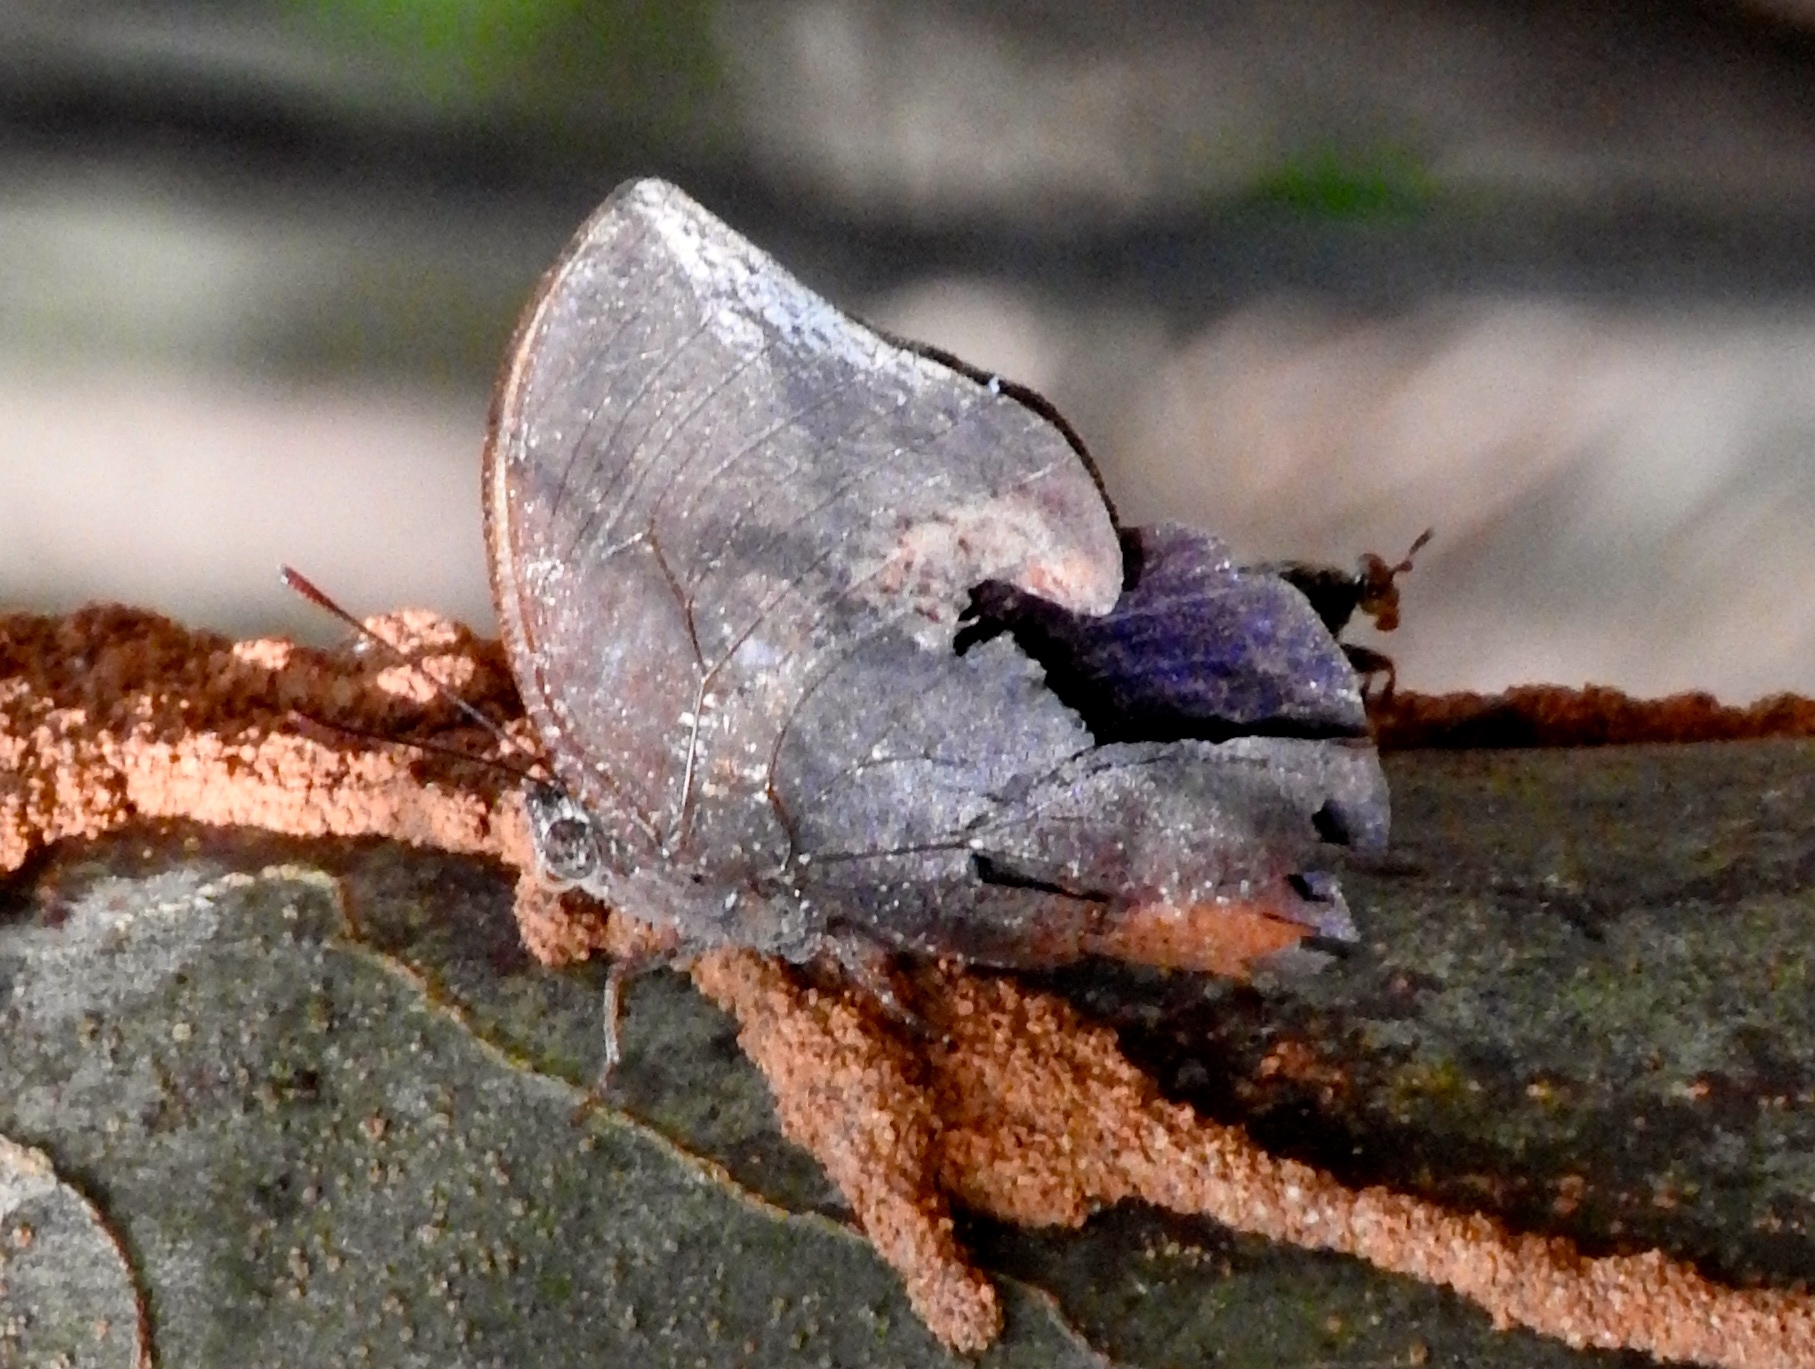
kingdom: Animalia
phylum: Arthropoda
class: Insecta
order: Lepidoptera
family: Nymphalidae
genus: Memphis
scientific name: Memphis forreri
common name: Forrer's leafwing
